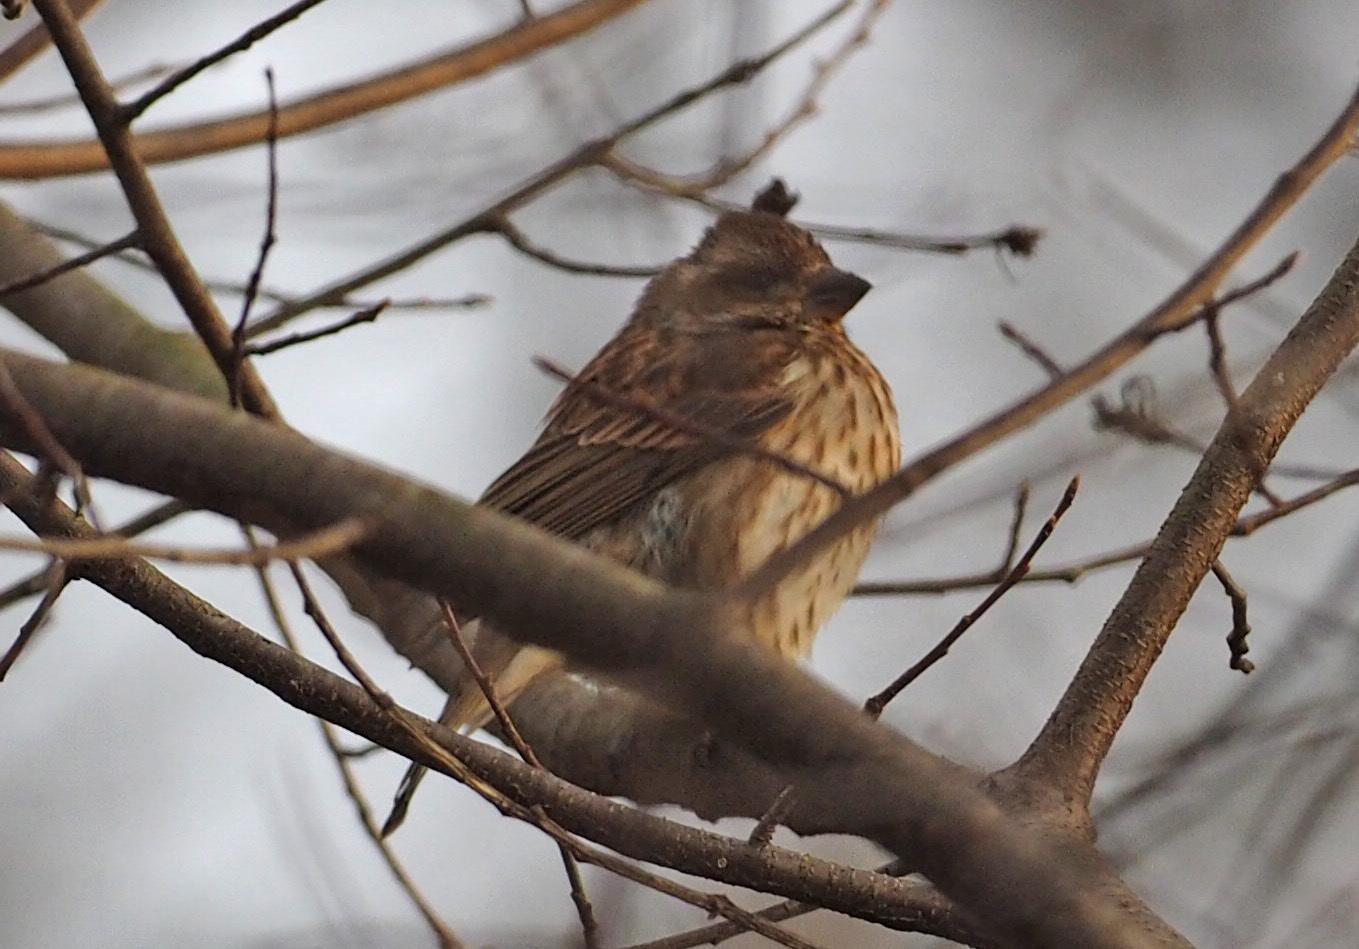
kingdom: Animalia
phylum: Chordata
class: Aves
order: Passeriformes
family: Fringillidae
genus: Haemorhous
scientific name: Haemorhous purpureus
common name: Purple finch
